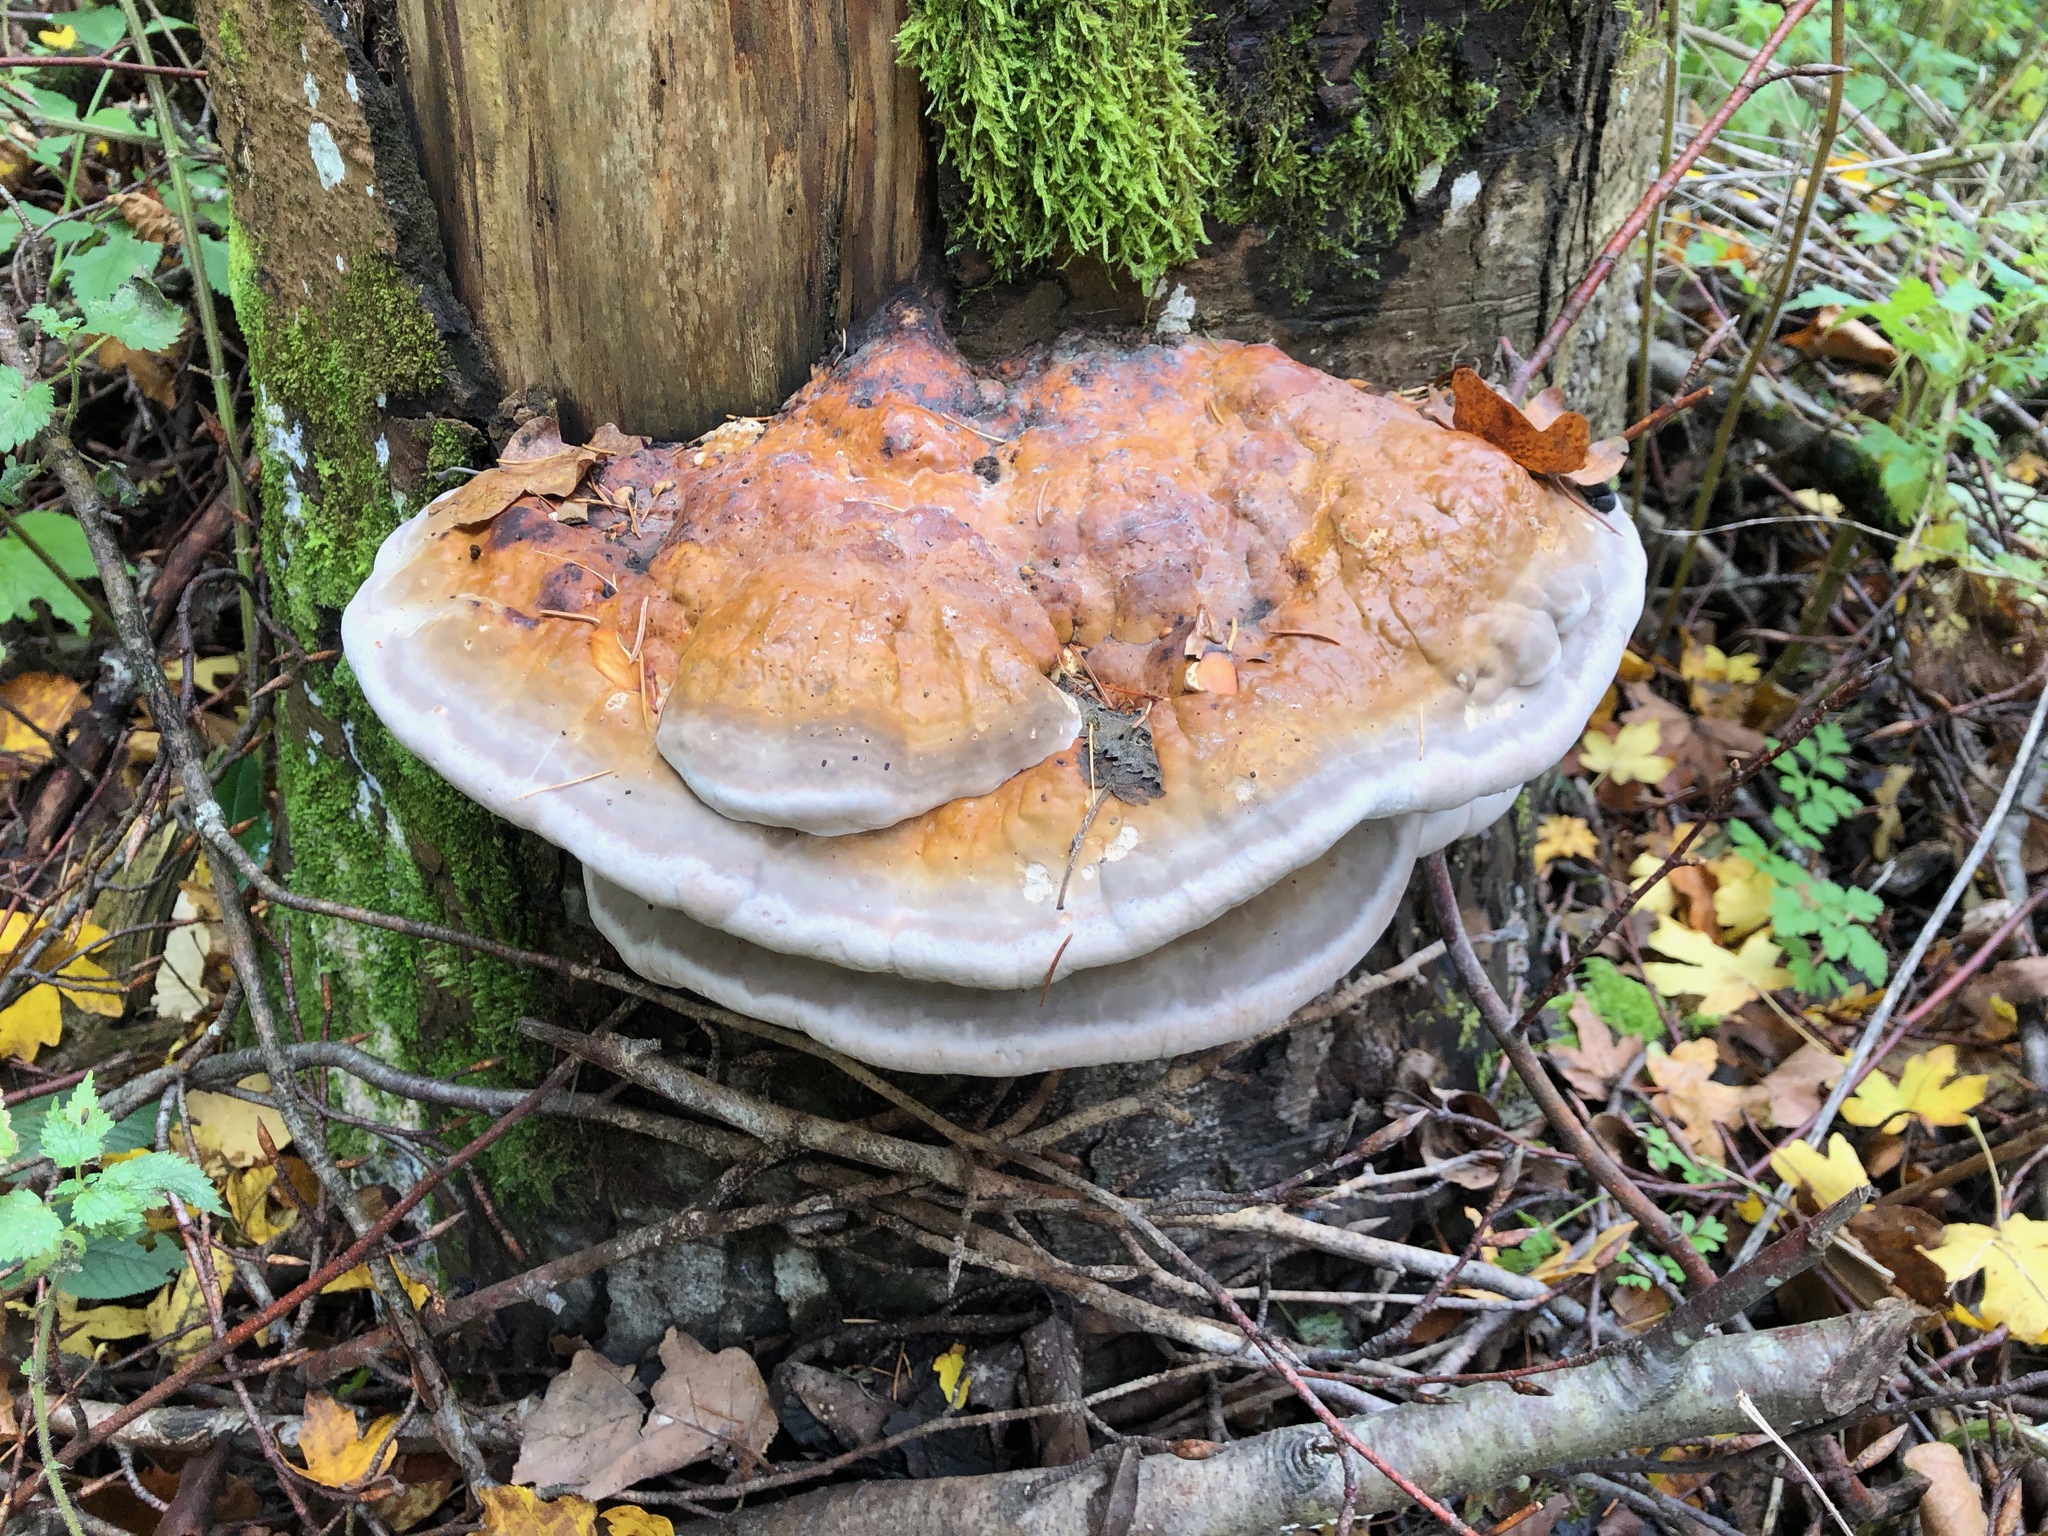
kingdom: Fungi
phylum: Basidiomycota
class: Agaricomycetes
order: Polyporales
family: Fomitopsidaceae
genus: Fomitopsis
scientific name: Fomitopsis pinicola
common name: Red-belted bracket
